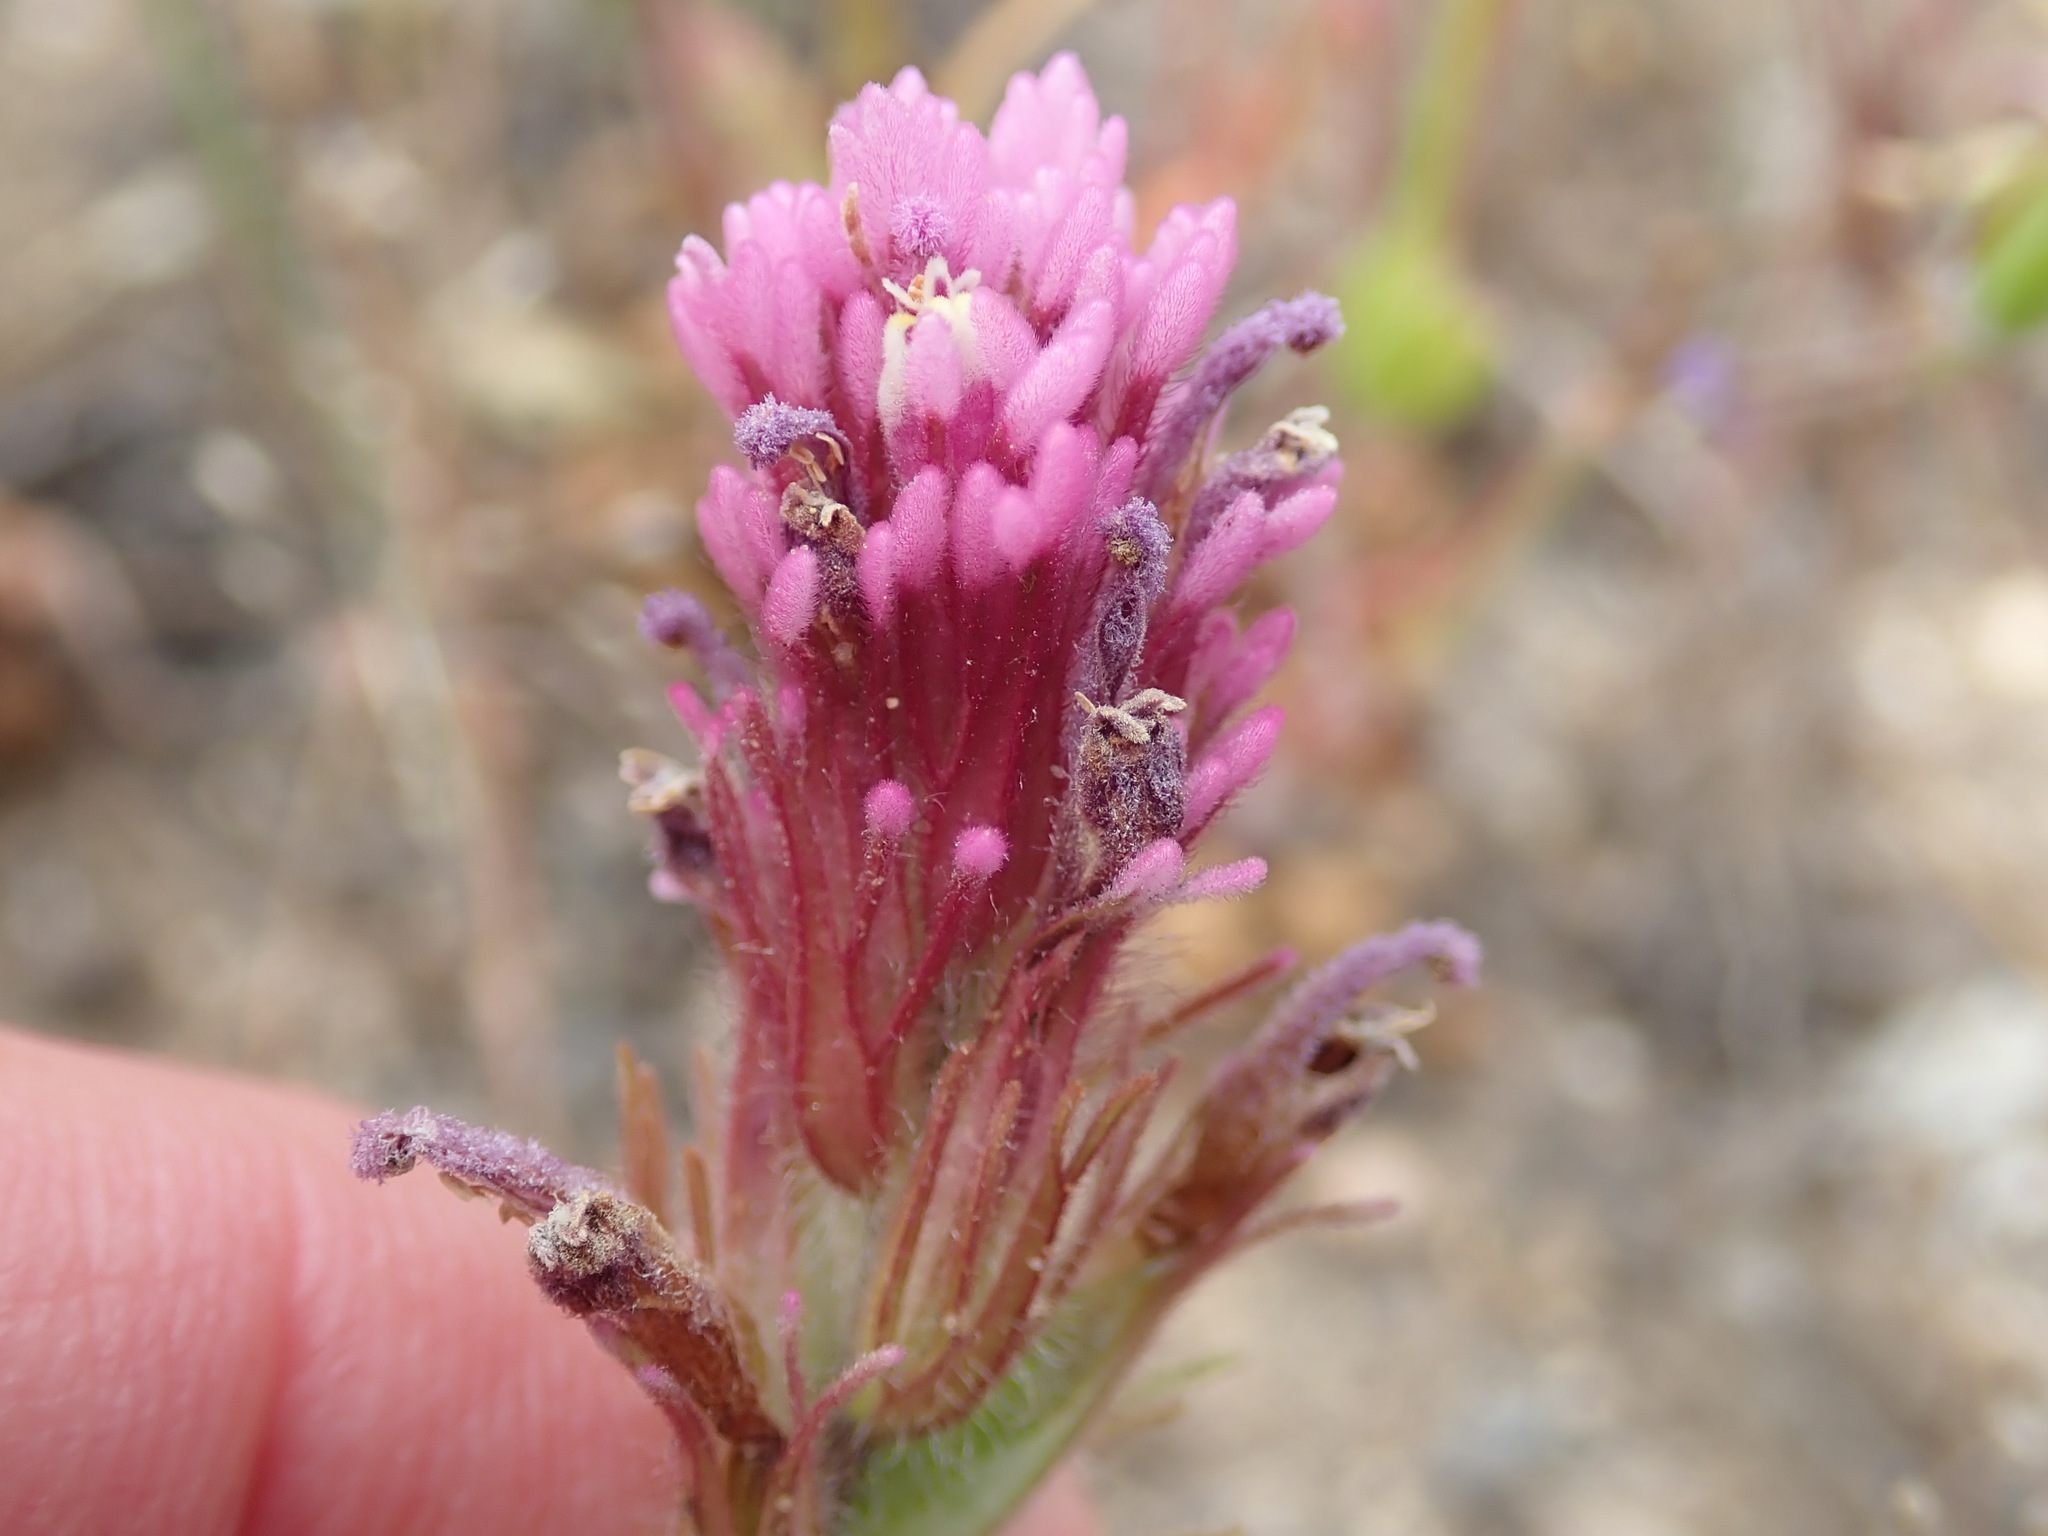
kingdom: Plantae
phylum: Tracheophyta
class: Magnoliopsida
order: Lamiales
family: Orobanchaceae
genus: Castilleja
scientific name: Castilleja exserta
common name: Purple owl-clover
